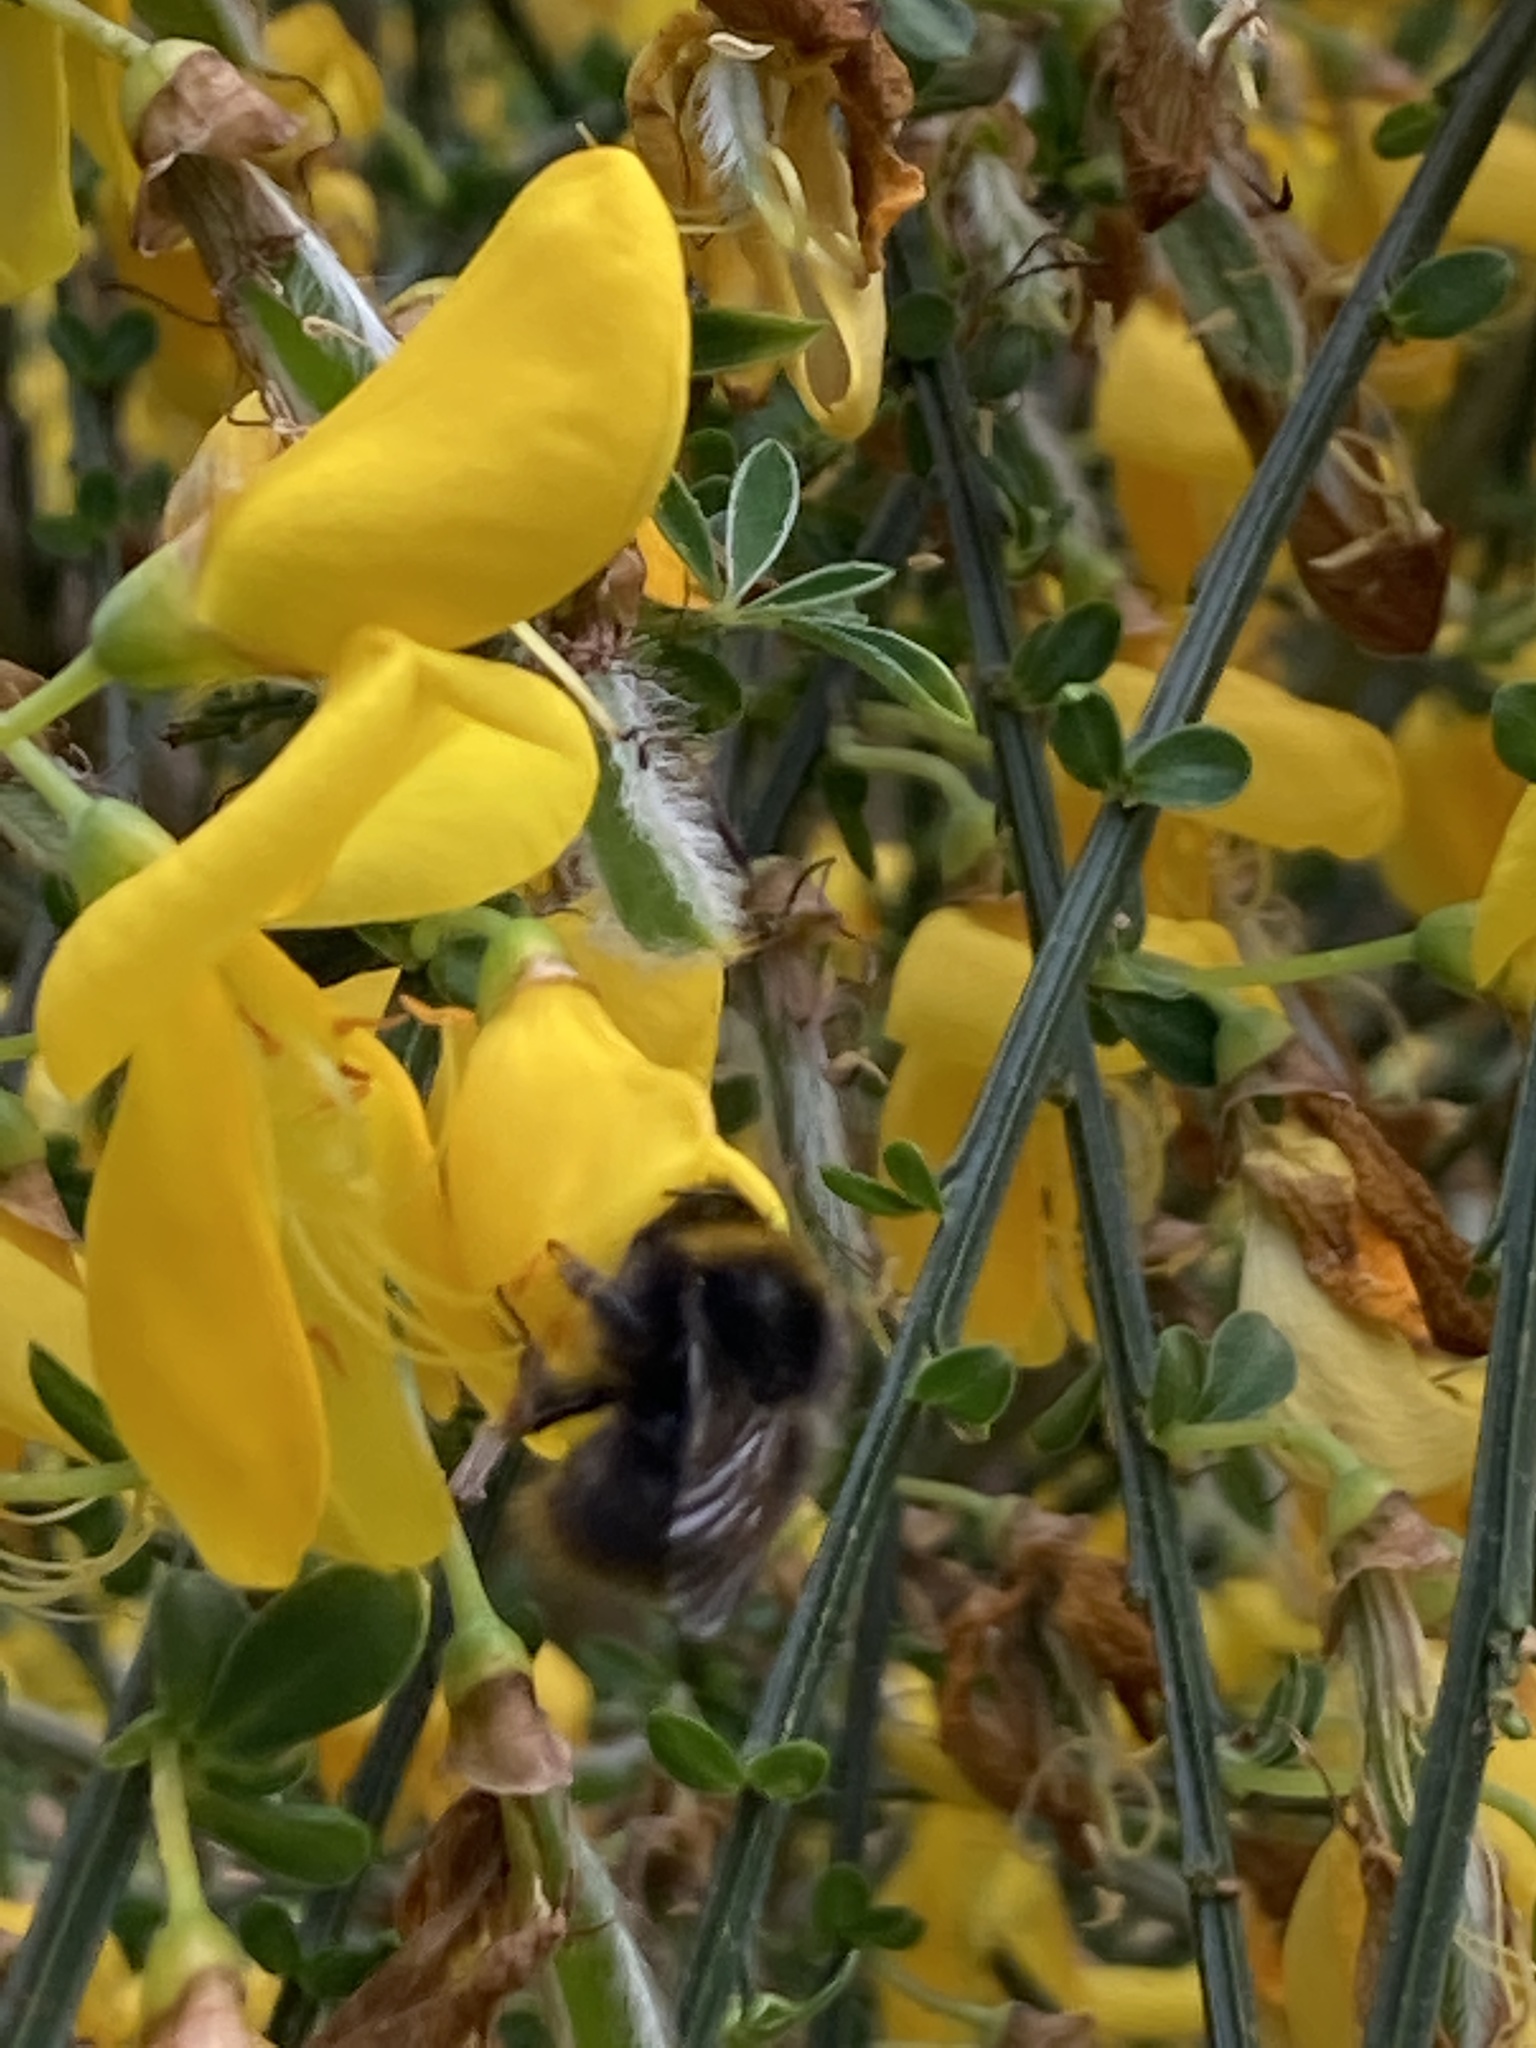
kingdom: Animalia
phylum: Arthropoda
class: Insecta
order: Hymenoptera
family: Apidae
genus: Bombus
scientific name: Bombus pratorum
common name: Early humble-bee
